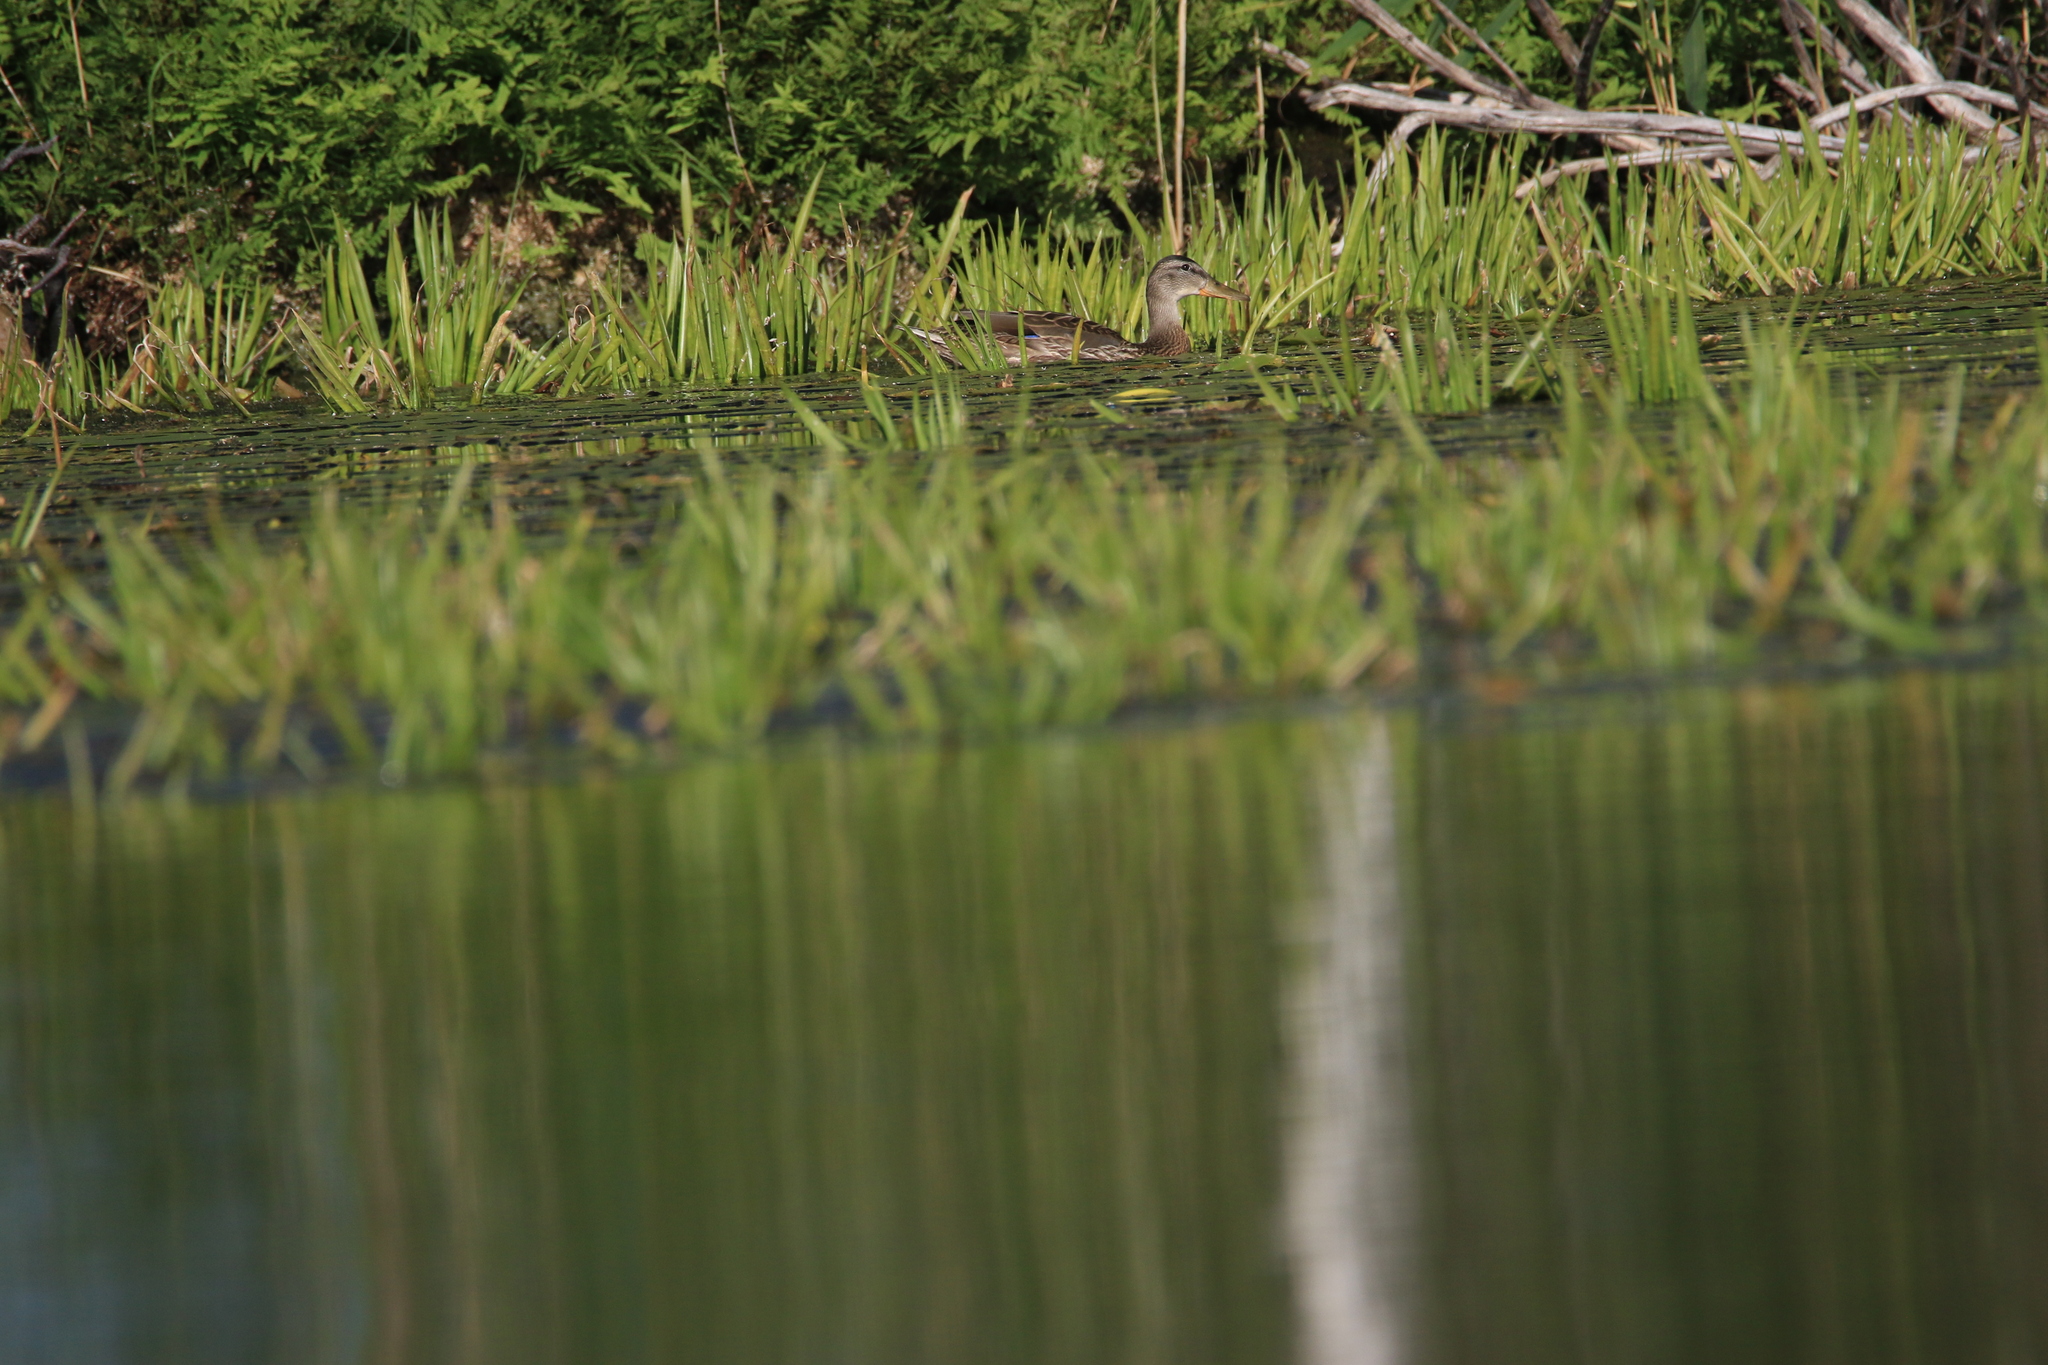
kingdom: Animalia
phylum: Chordata
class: Aves
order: Anseriformes
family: Anatidae
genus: Anas
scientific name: Anas platyrhynchos
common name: Mallard
